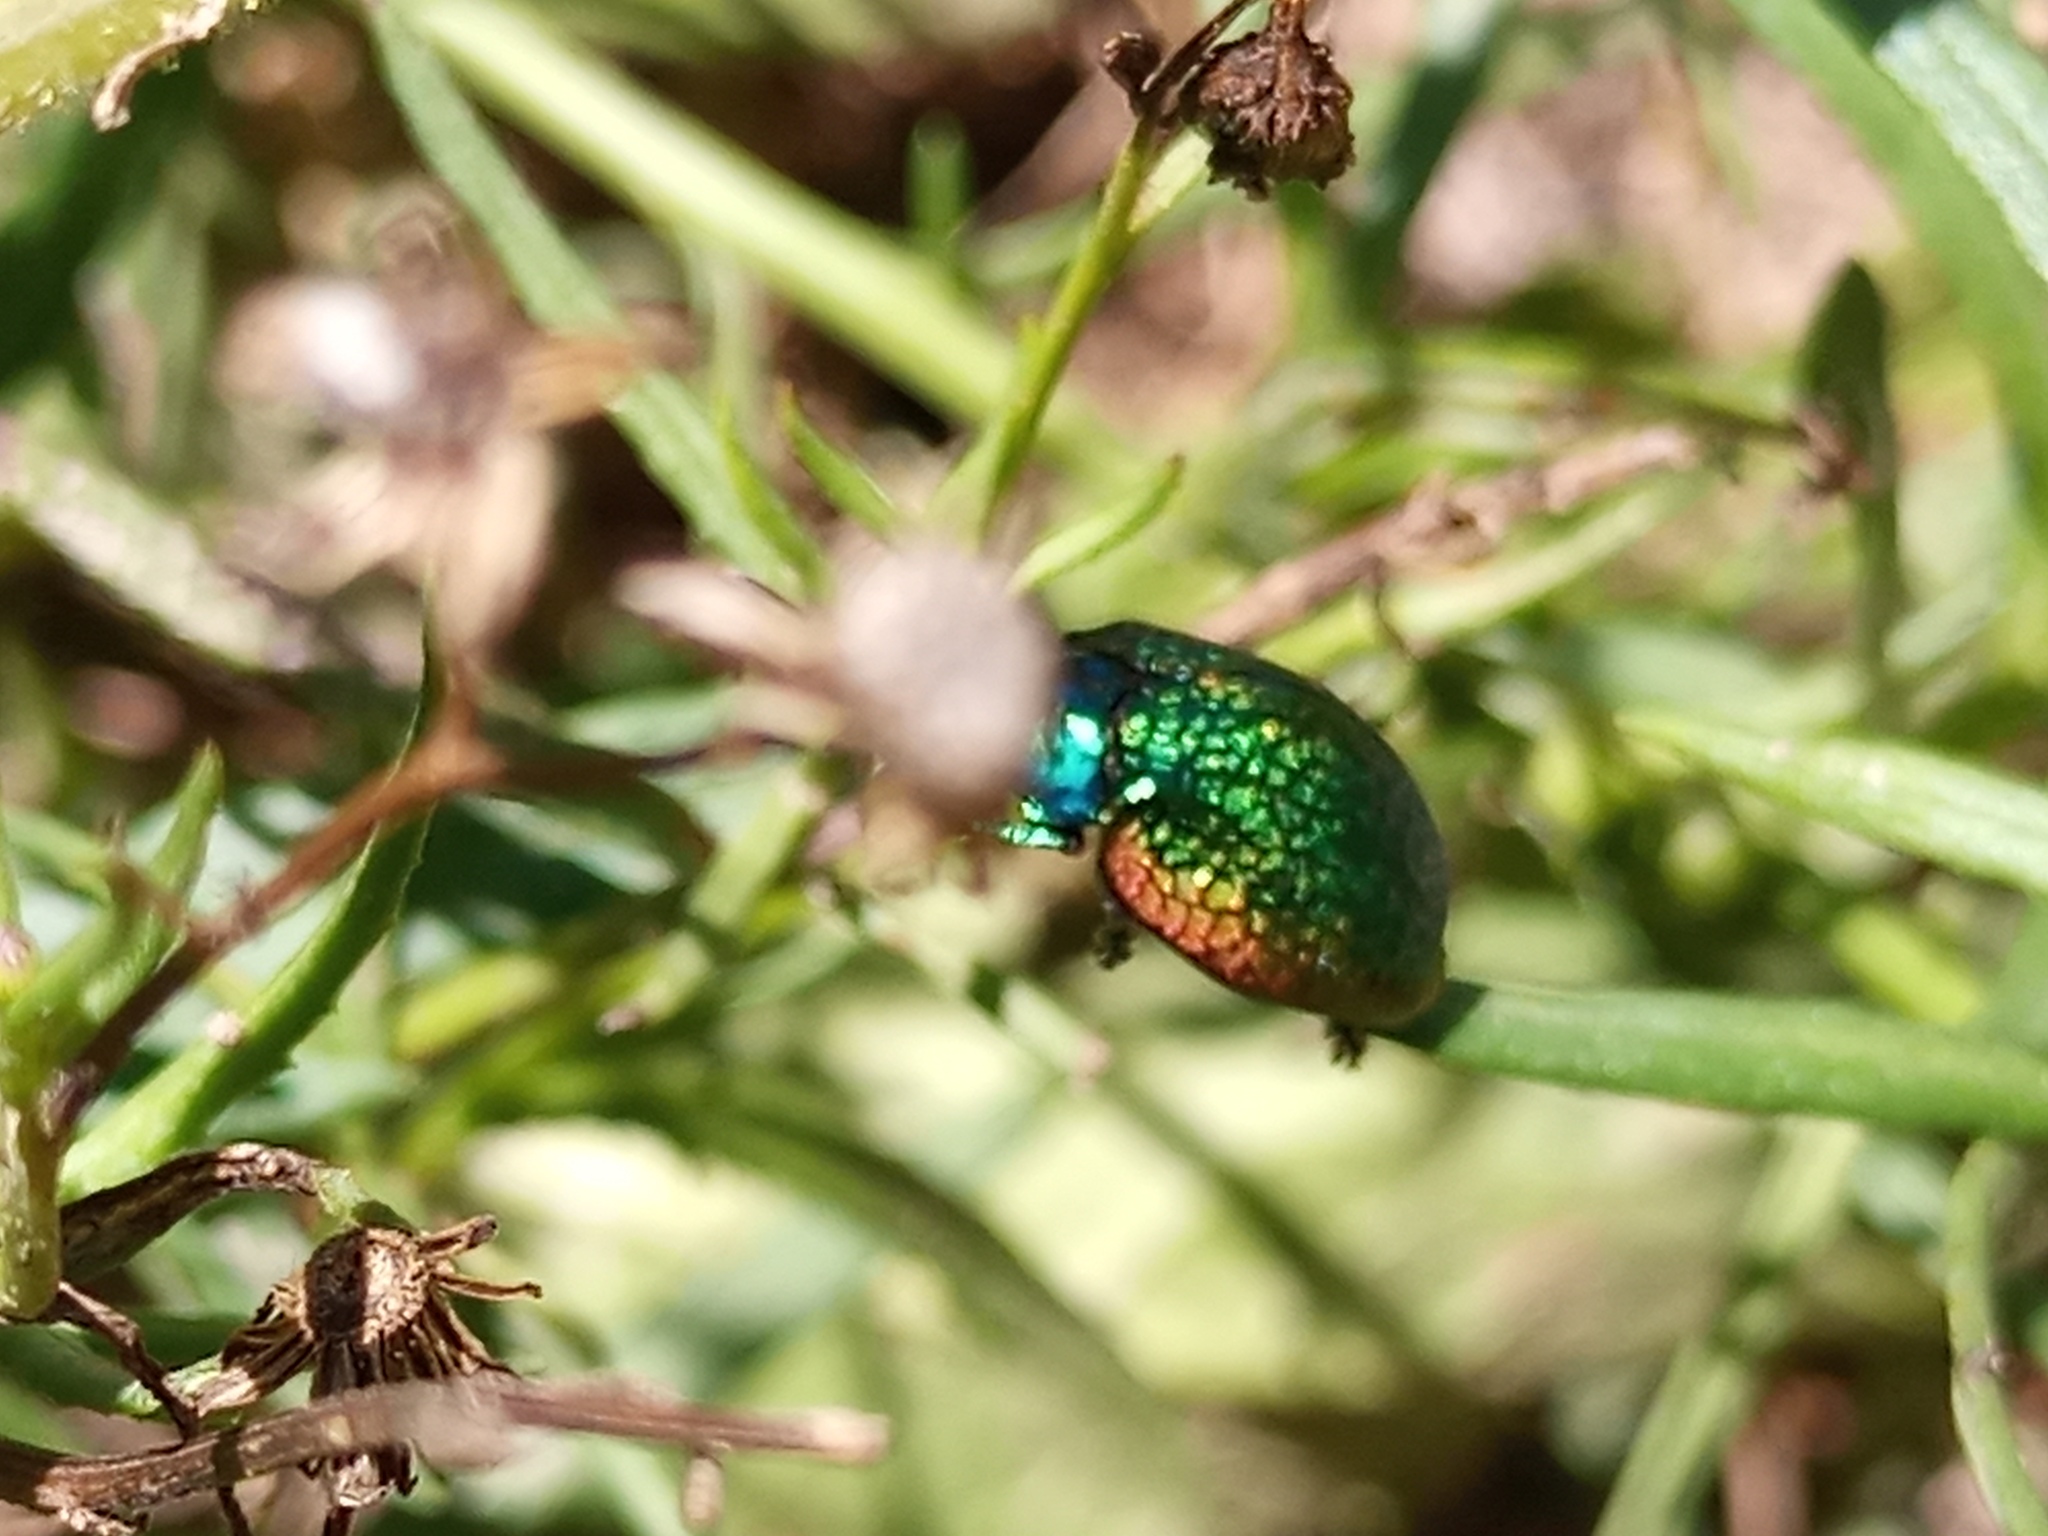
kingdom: Animalia
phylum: Arthropoda
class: Insecta
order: Coleoptera
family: Chrysomelidae
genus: Stolas
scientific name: Stolas festiva
